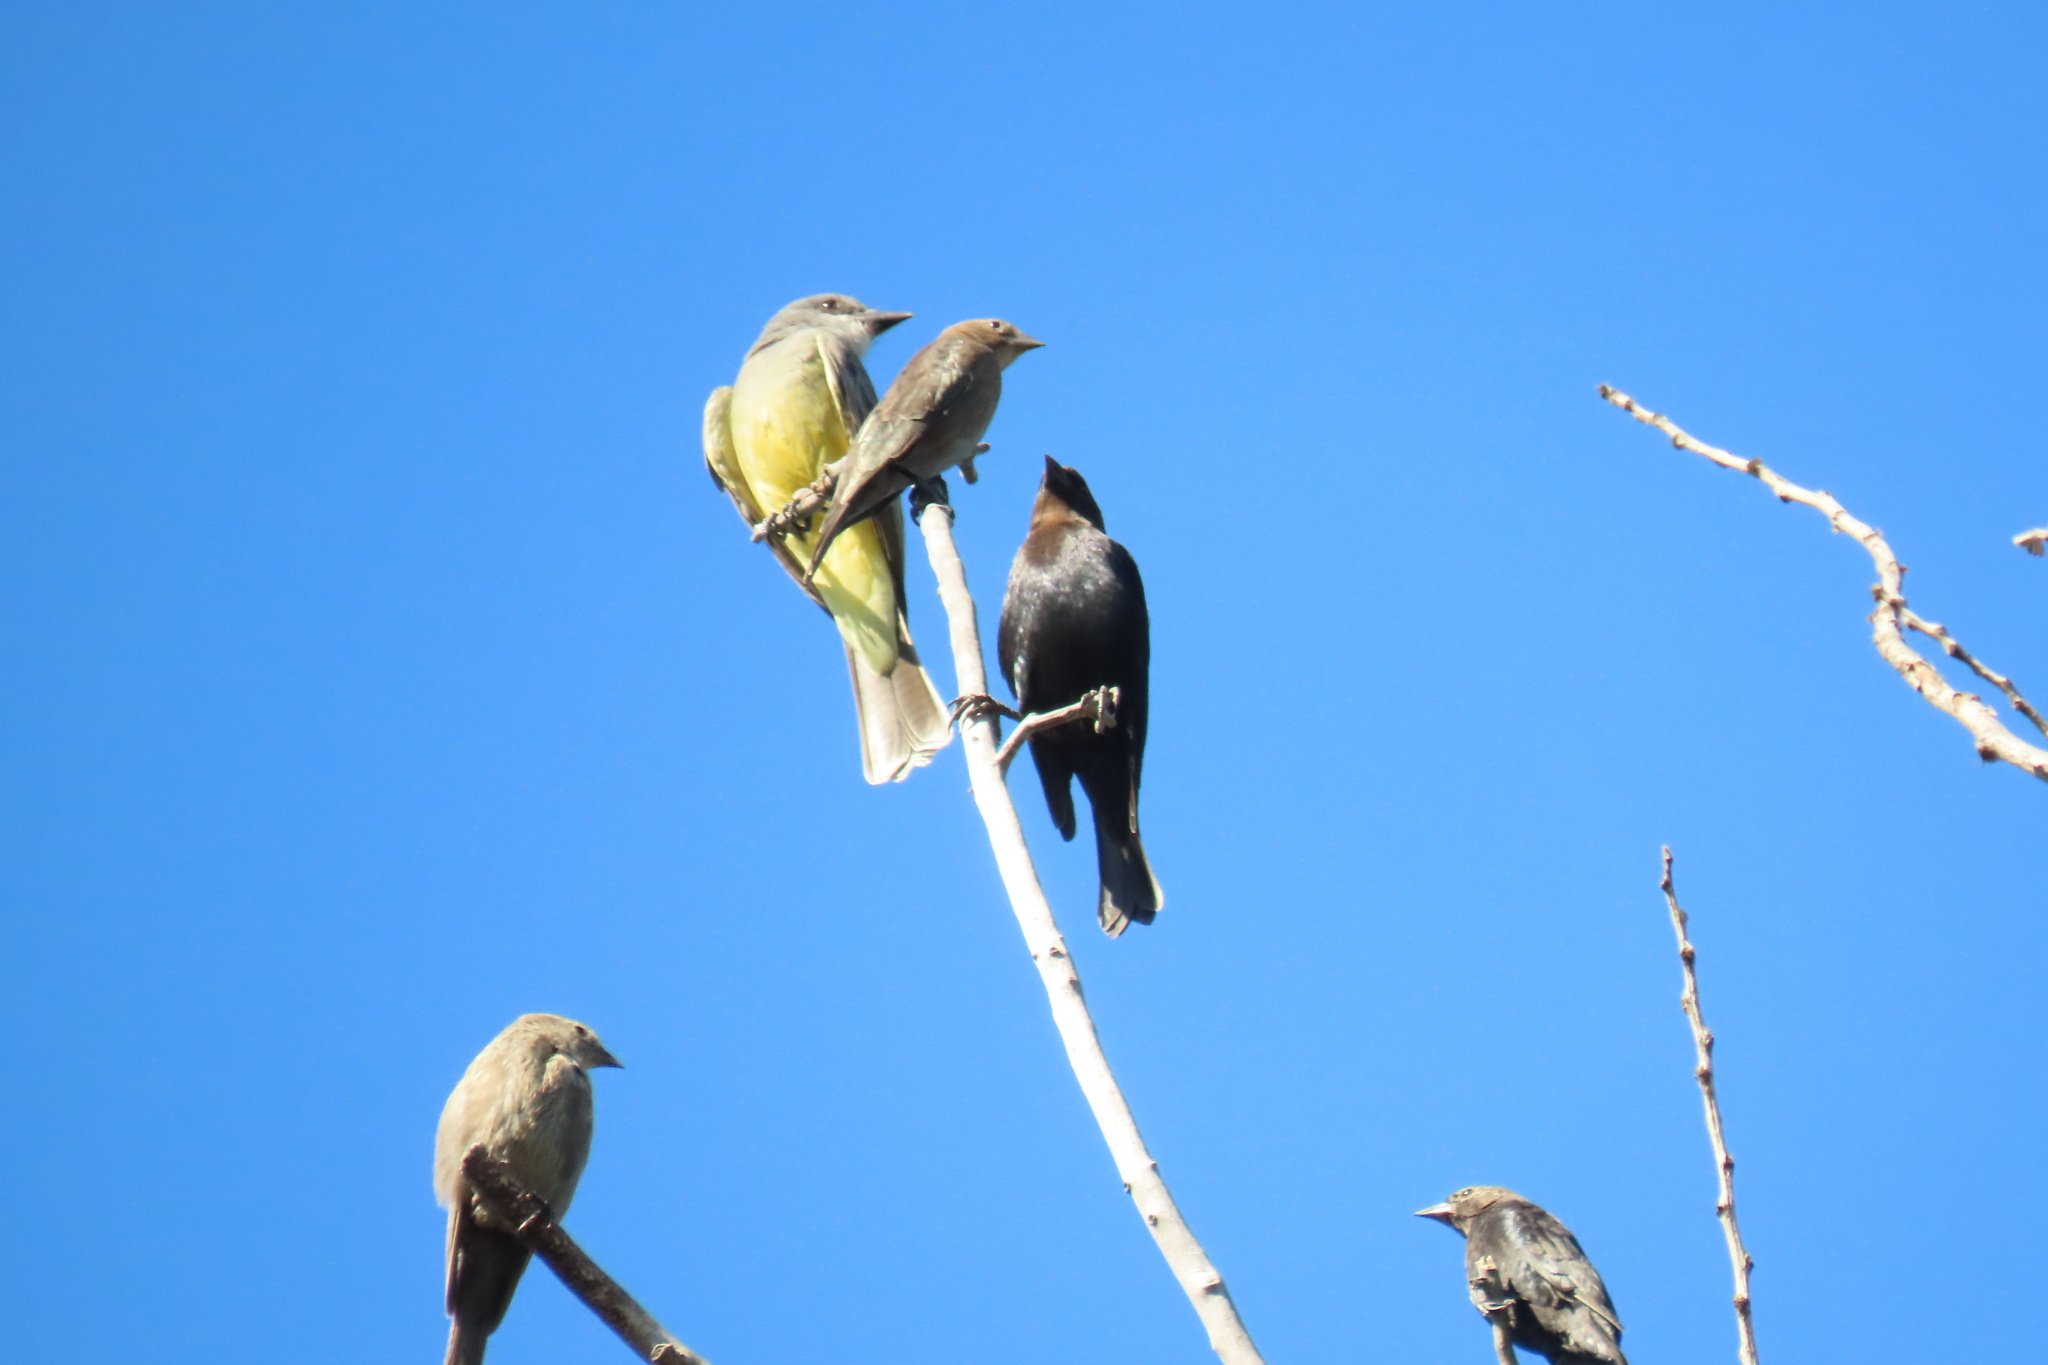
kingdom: Animalia
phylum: Chordata
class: Aves
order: Passeriformes
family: Tyrannidae
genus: Tyrannus
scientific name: Tyrannus verticalis
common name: Western kingbird
